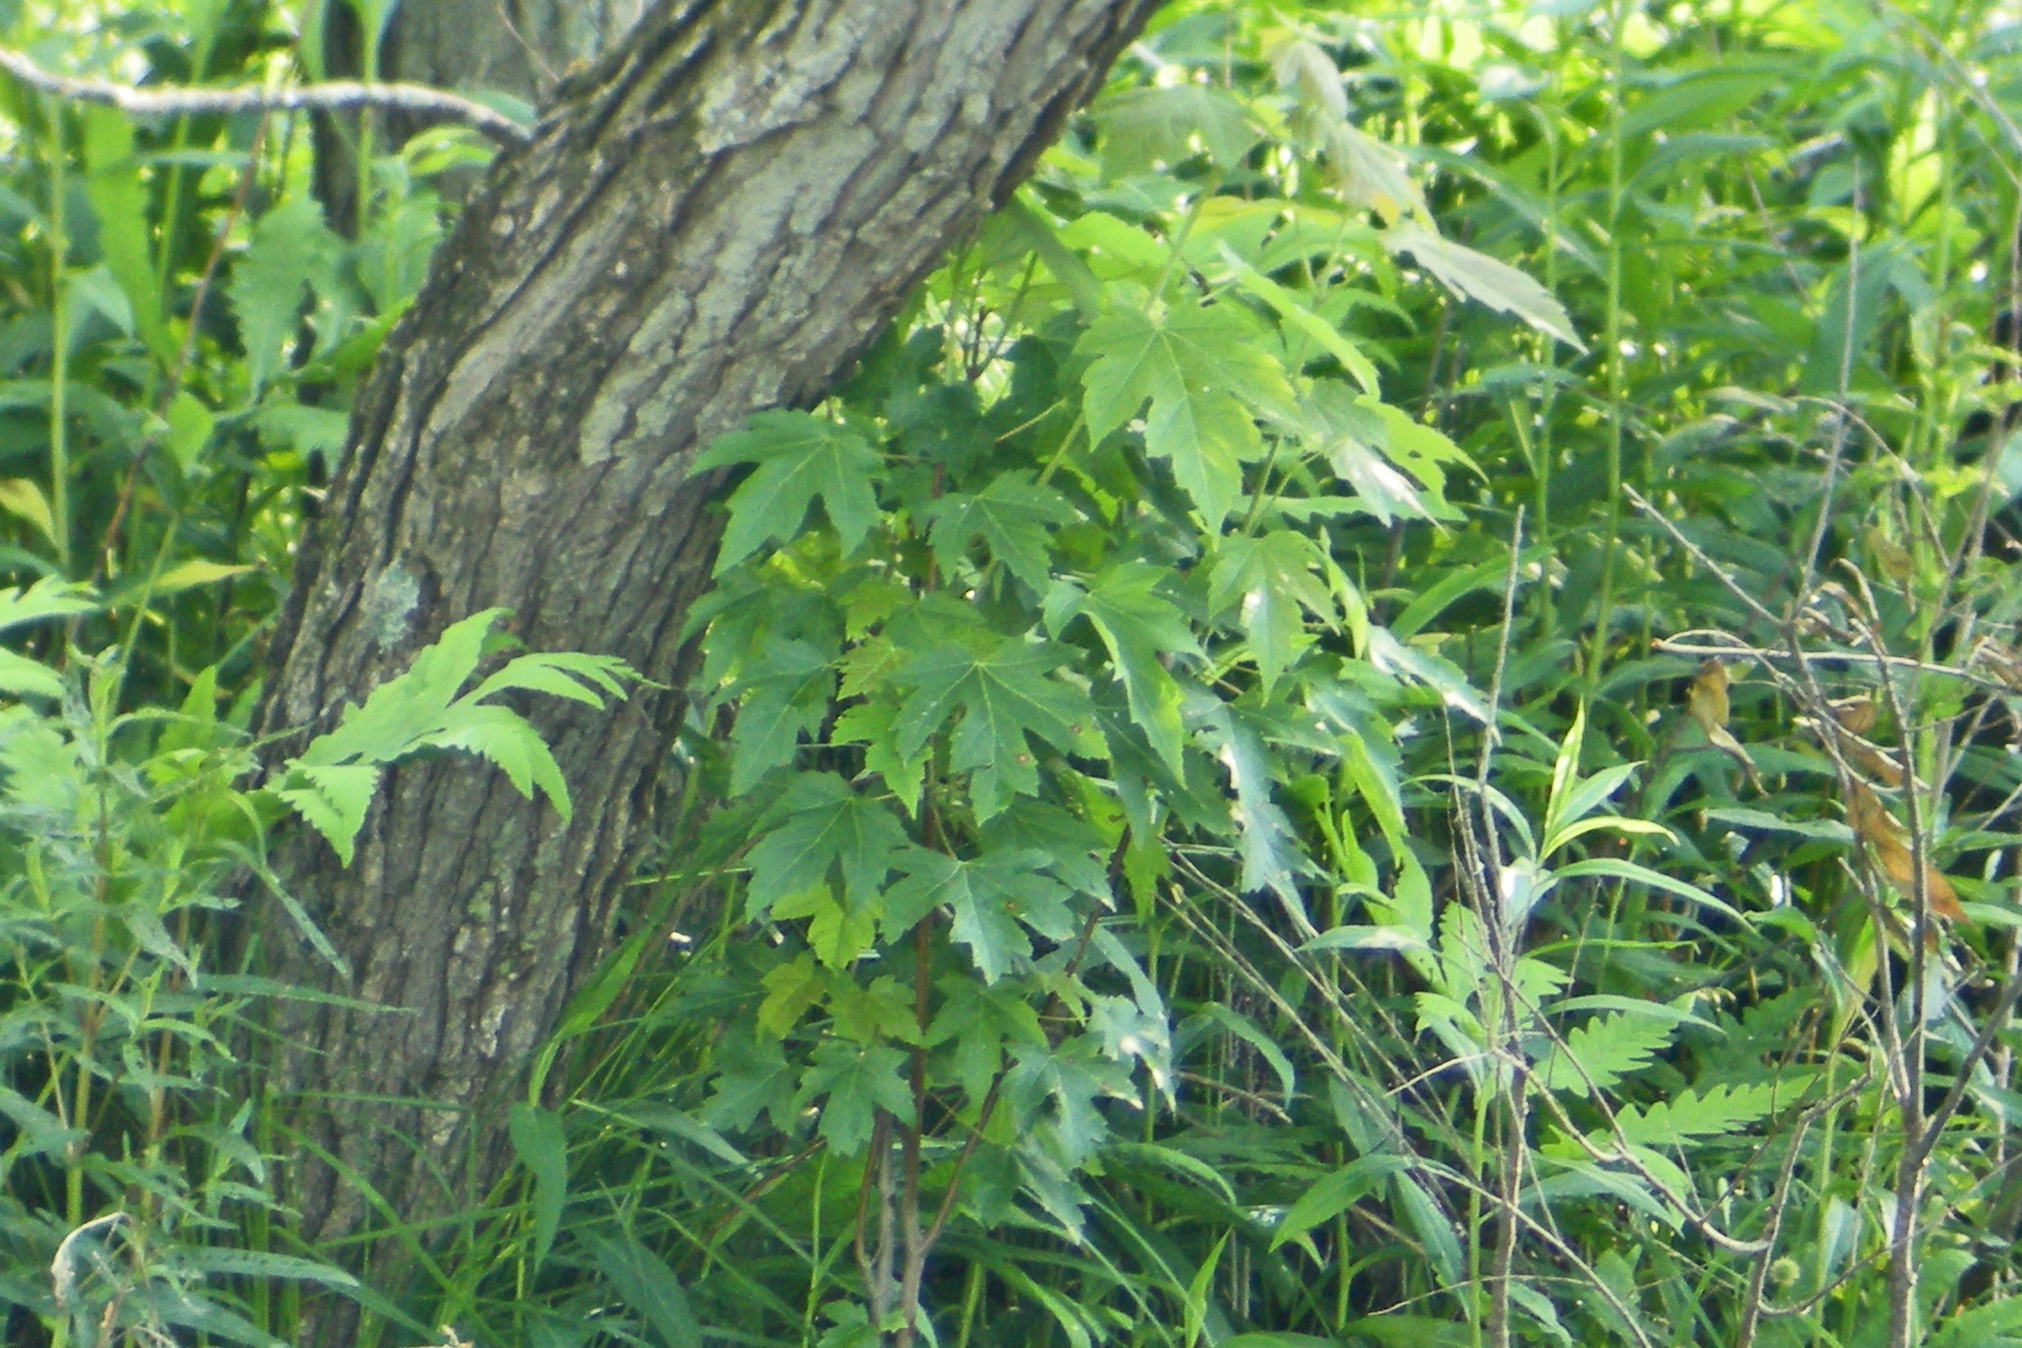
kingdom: Plantae
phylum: Tracheophyta
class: Magnoliopsida
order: Sapindales
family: Sapindaceae
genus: Acer
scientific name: Acer saccharinum
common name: Silver maple
